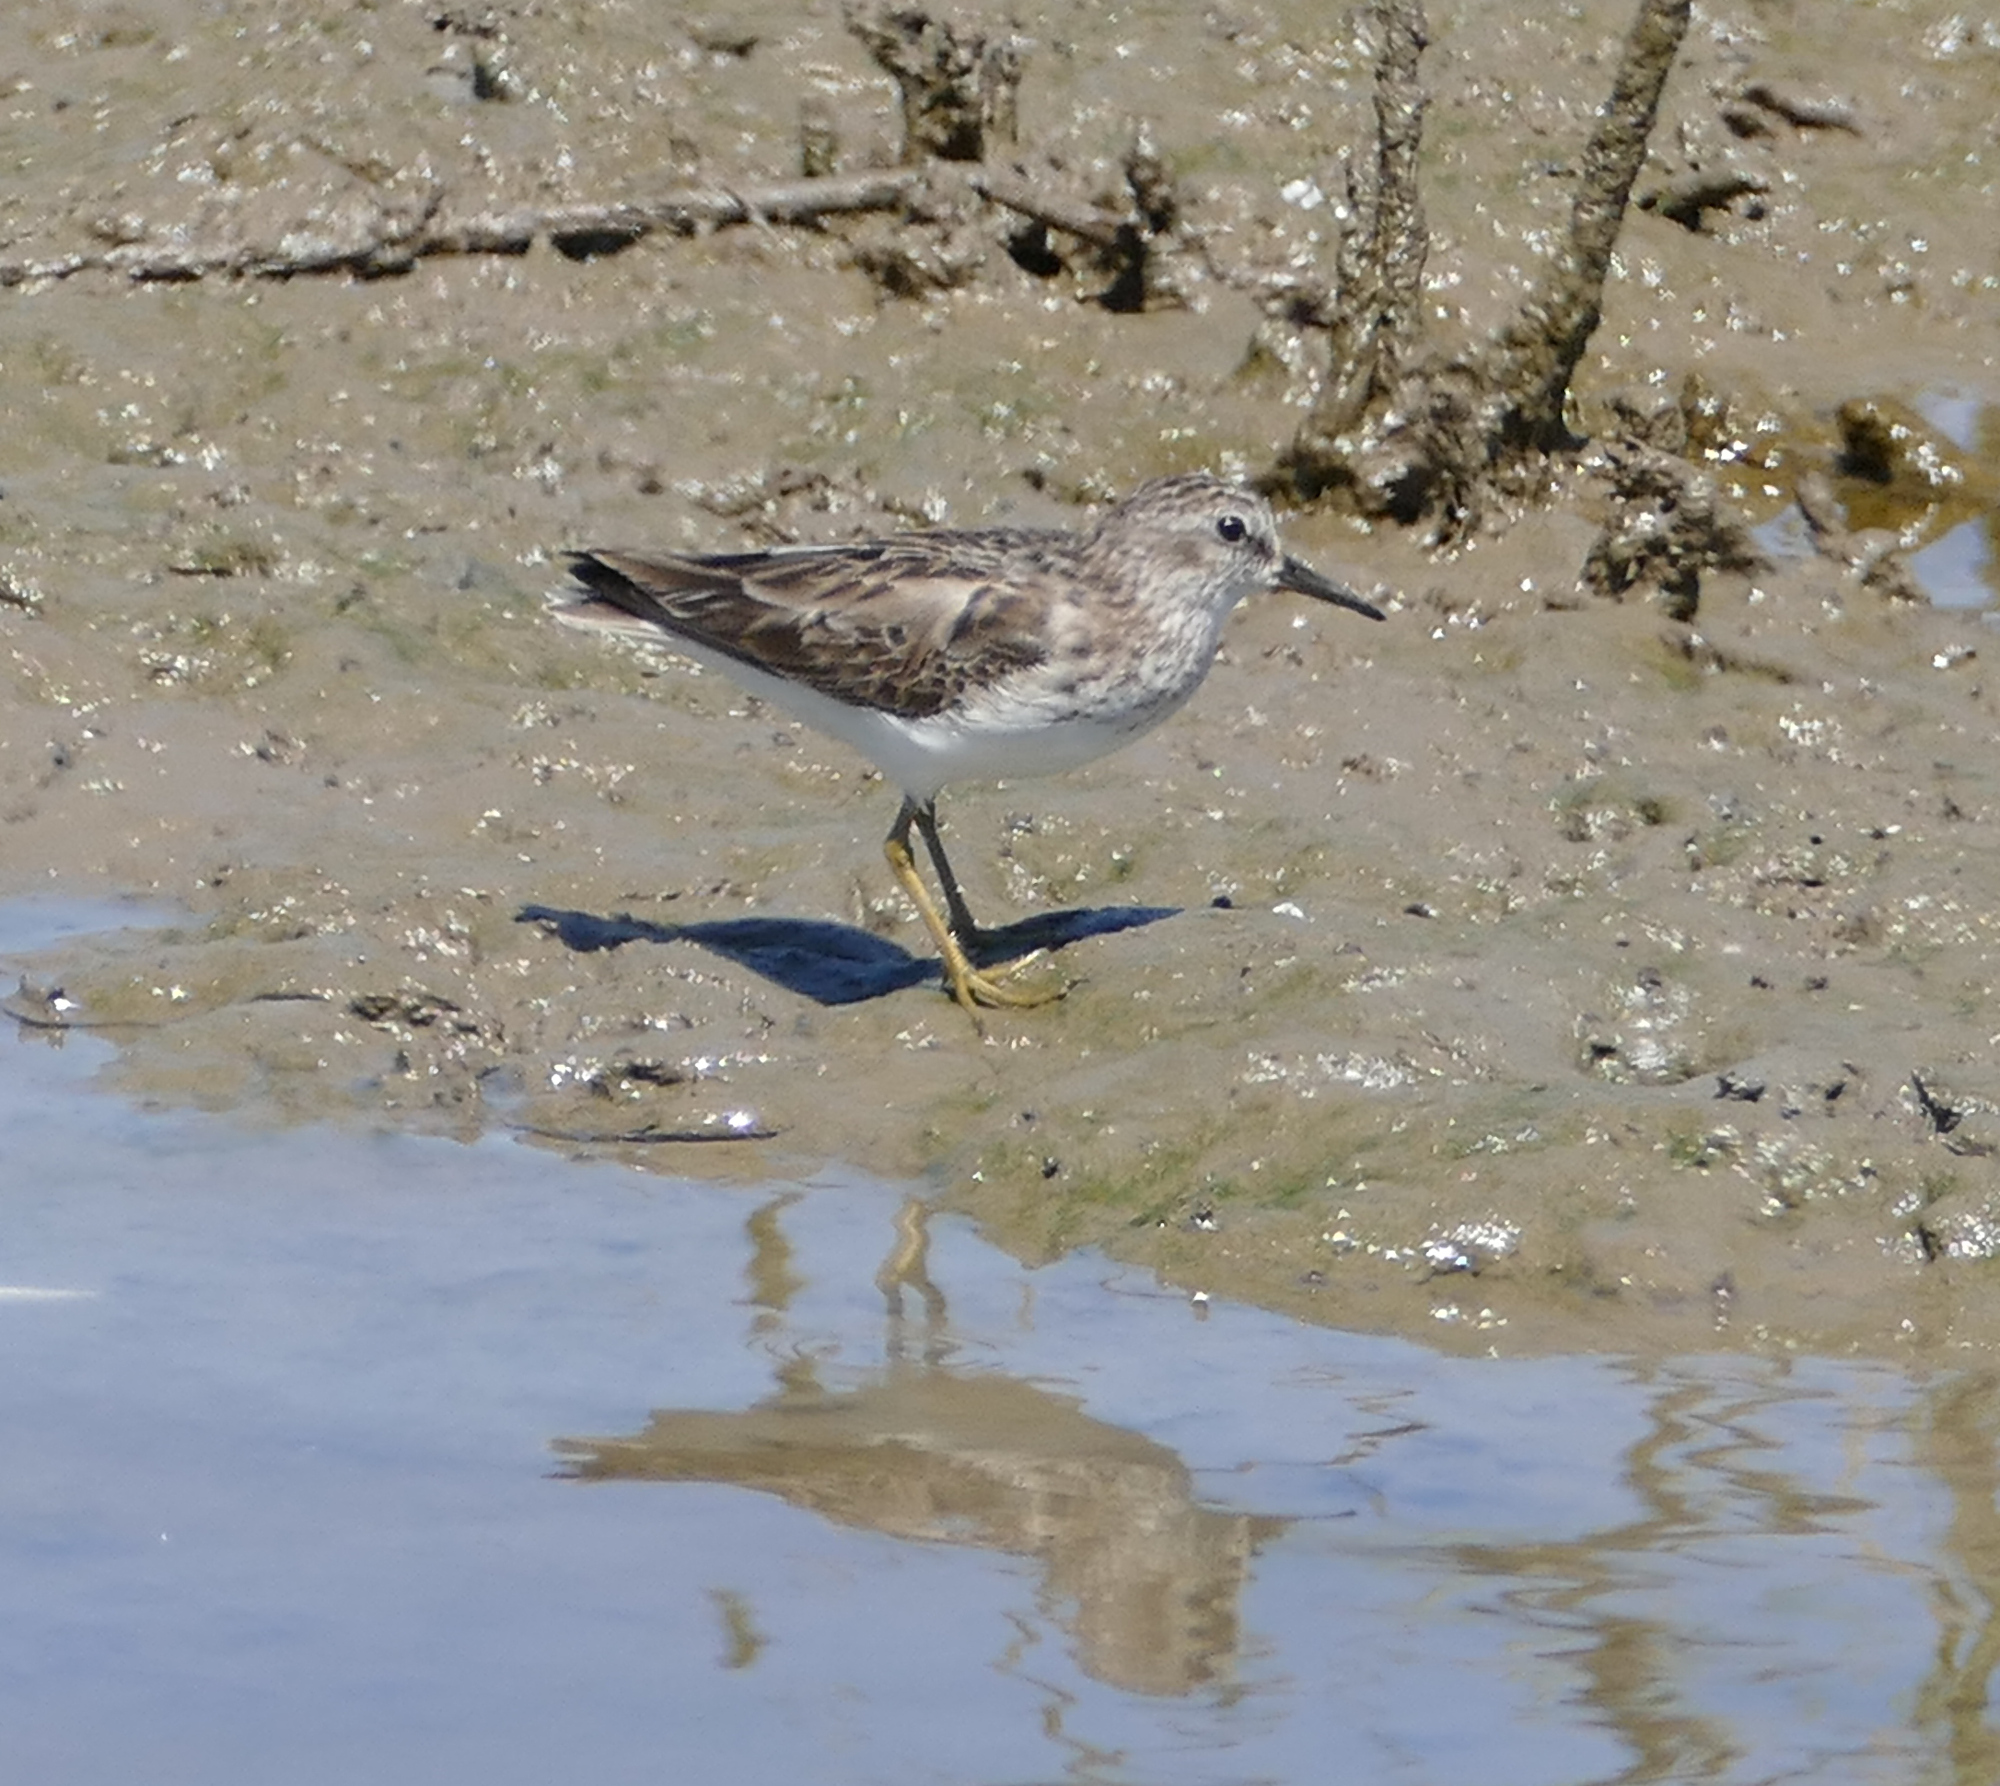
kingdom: Animalia
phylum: Chordata
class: Aves
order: Charadriiformes
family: Scolopacidae
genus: Calidris
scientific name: Calidris minutilla
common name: Least sandpiper
